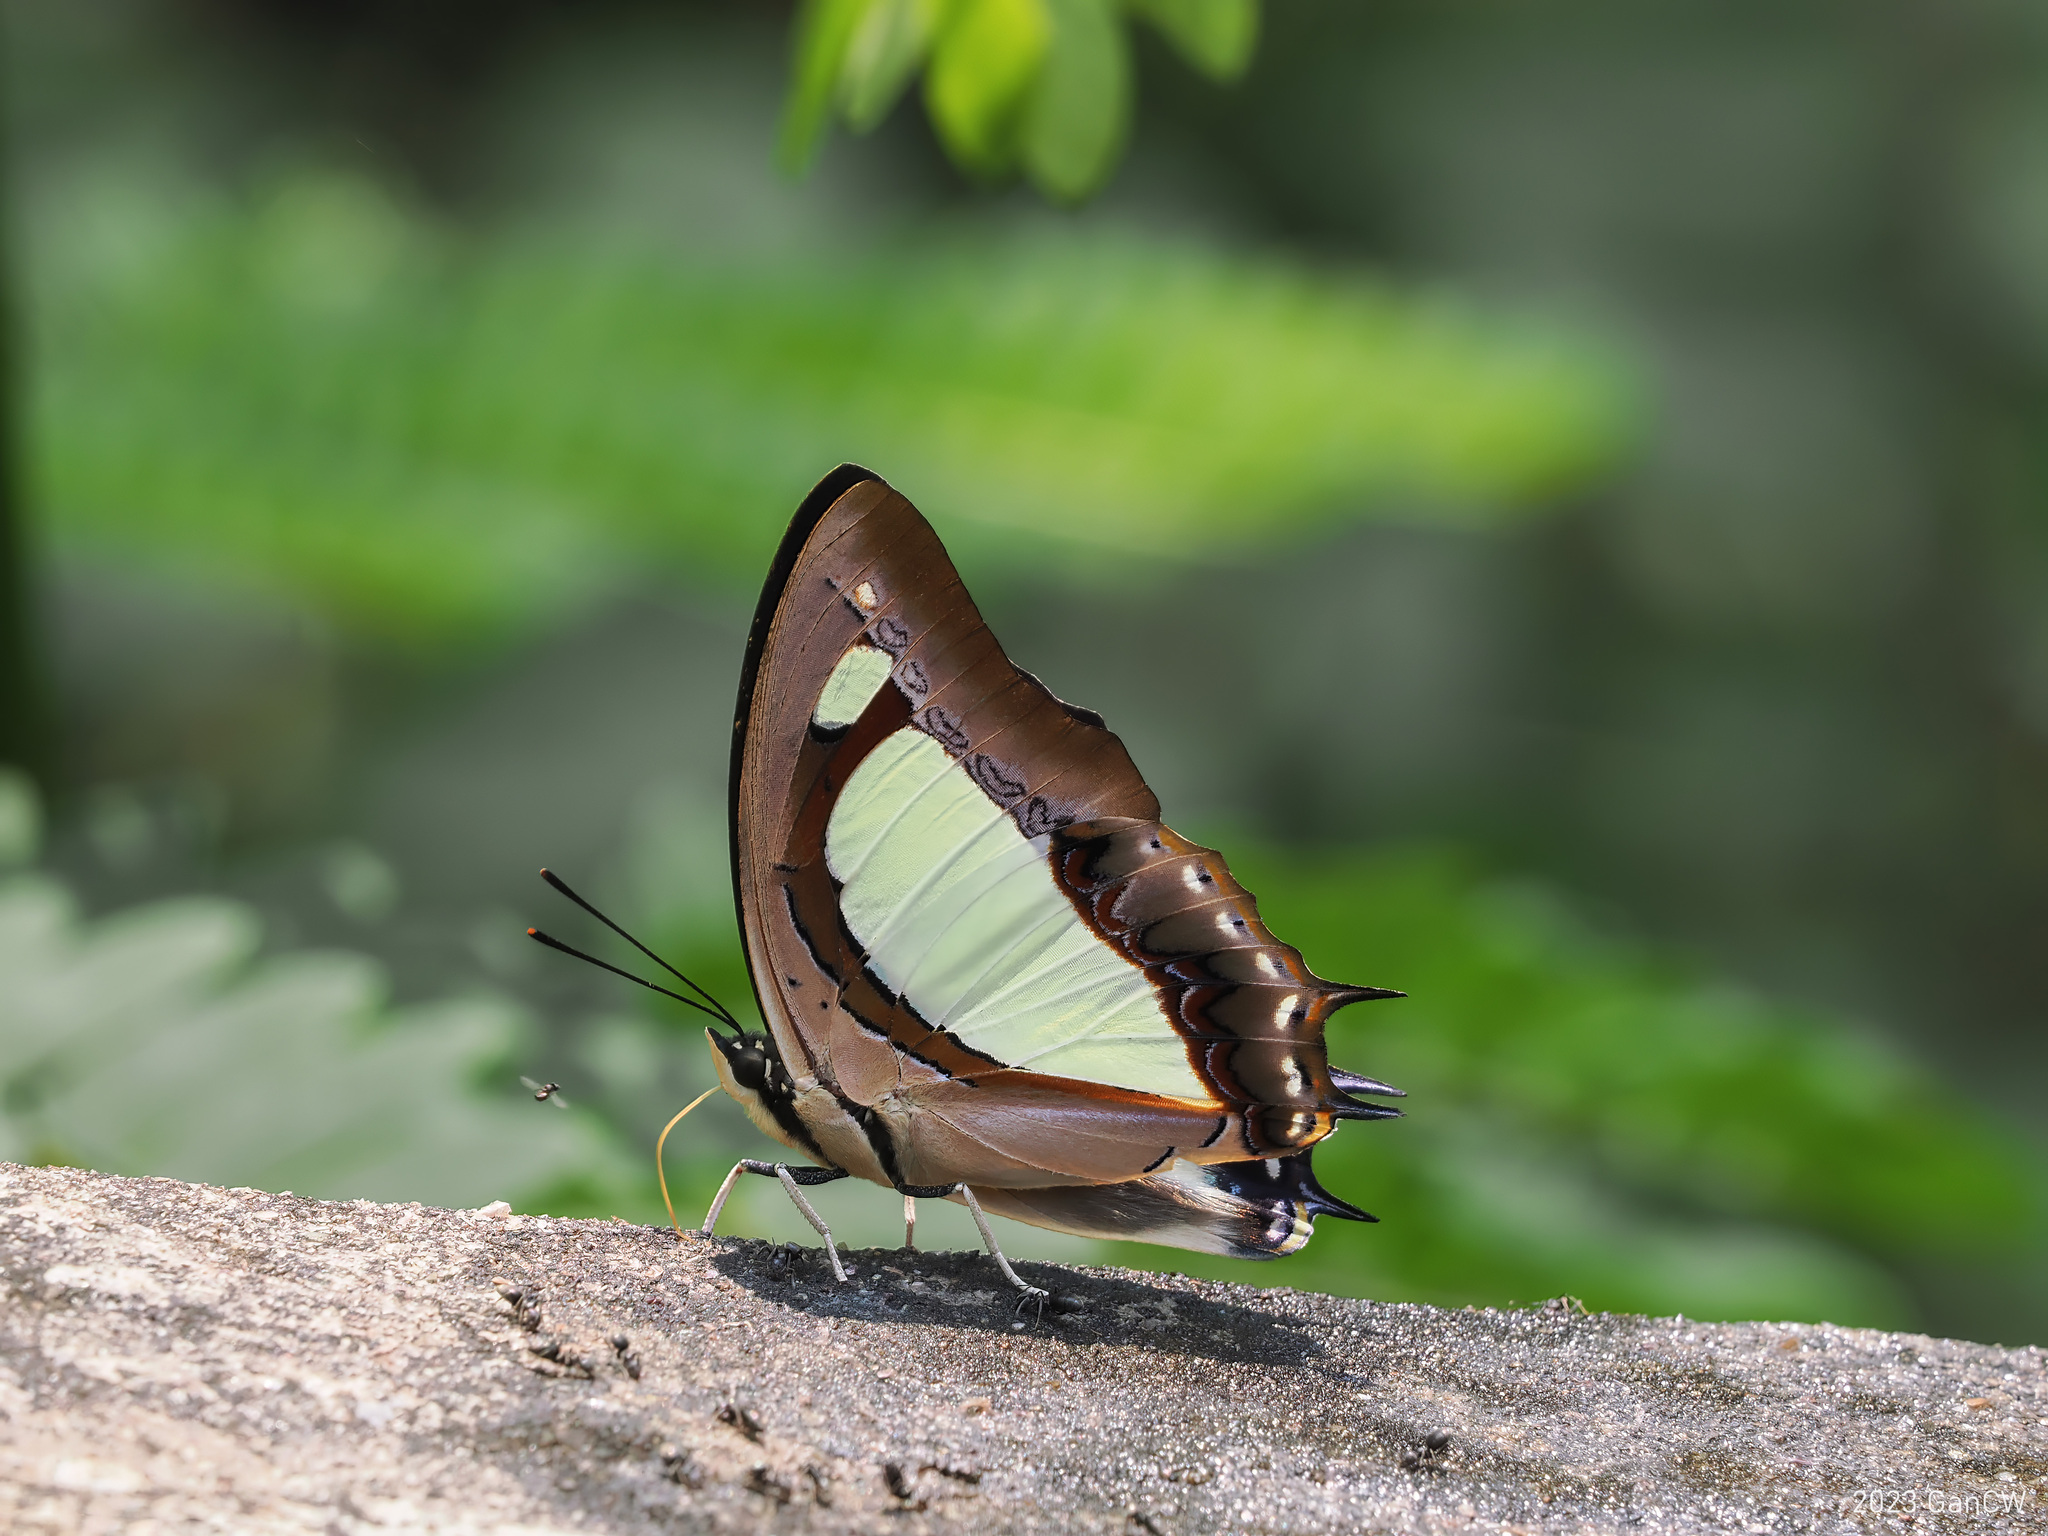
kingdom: Animalia
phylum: Arthropoda
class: Insecta
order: Lepidoptera
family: Nymphalidae
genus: Polyura
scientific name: Polyura arja
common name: Pallid nawab
